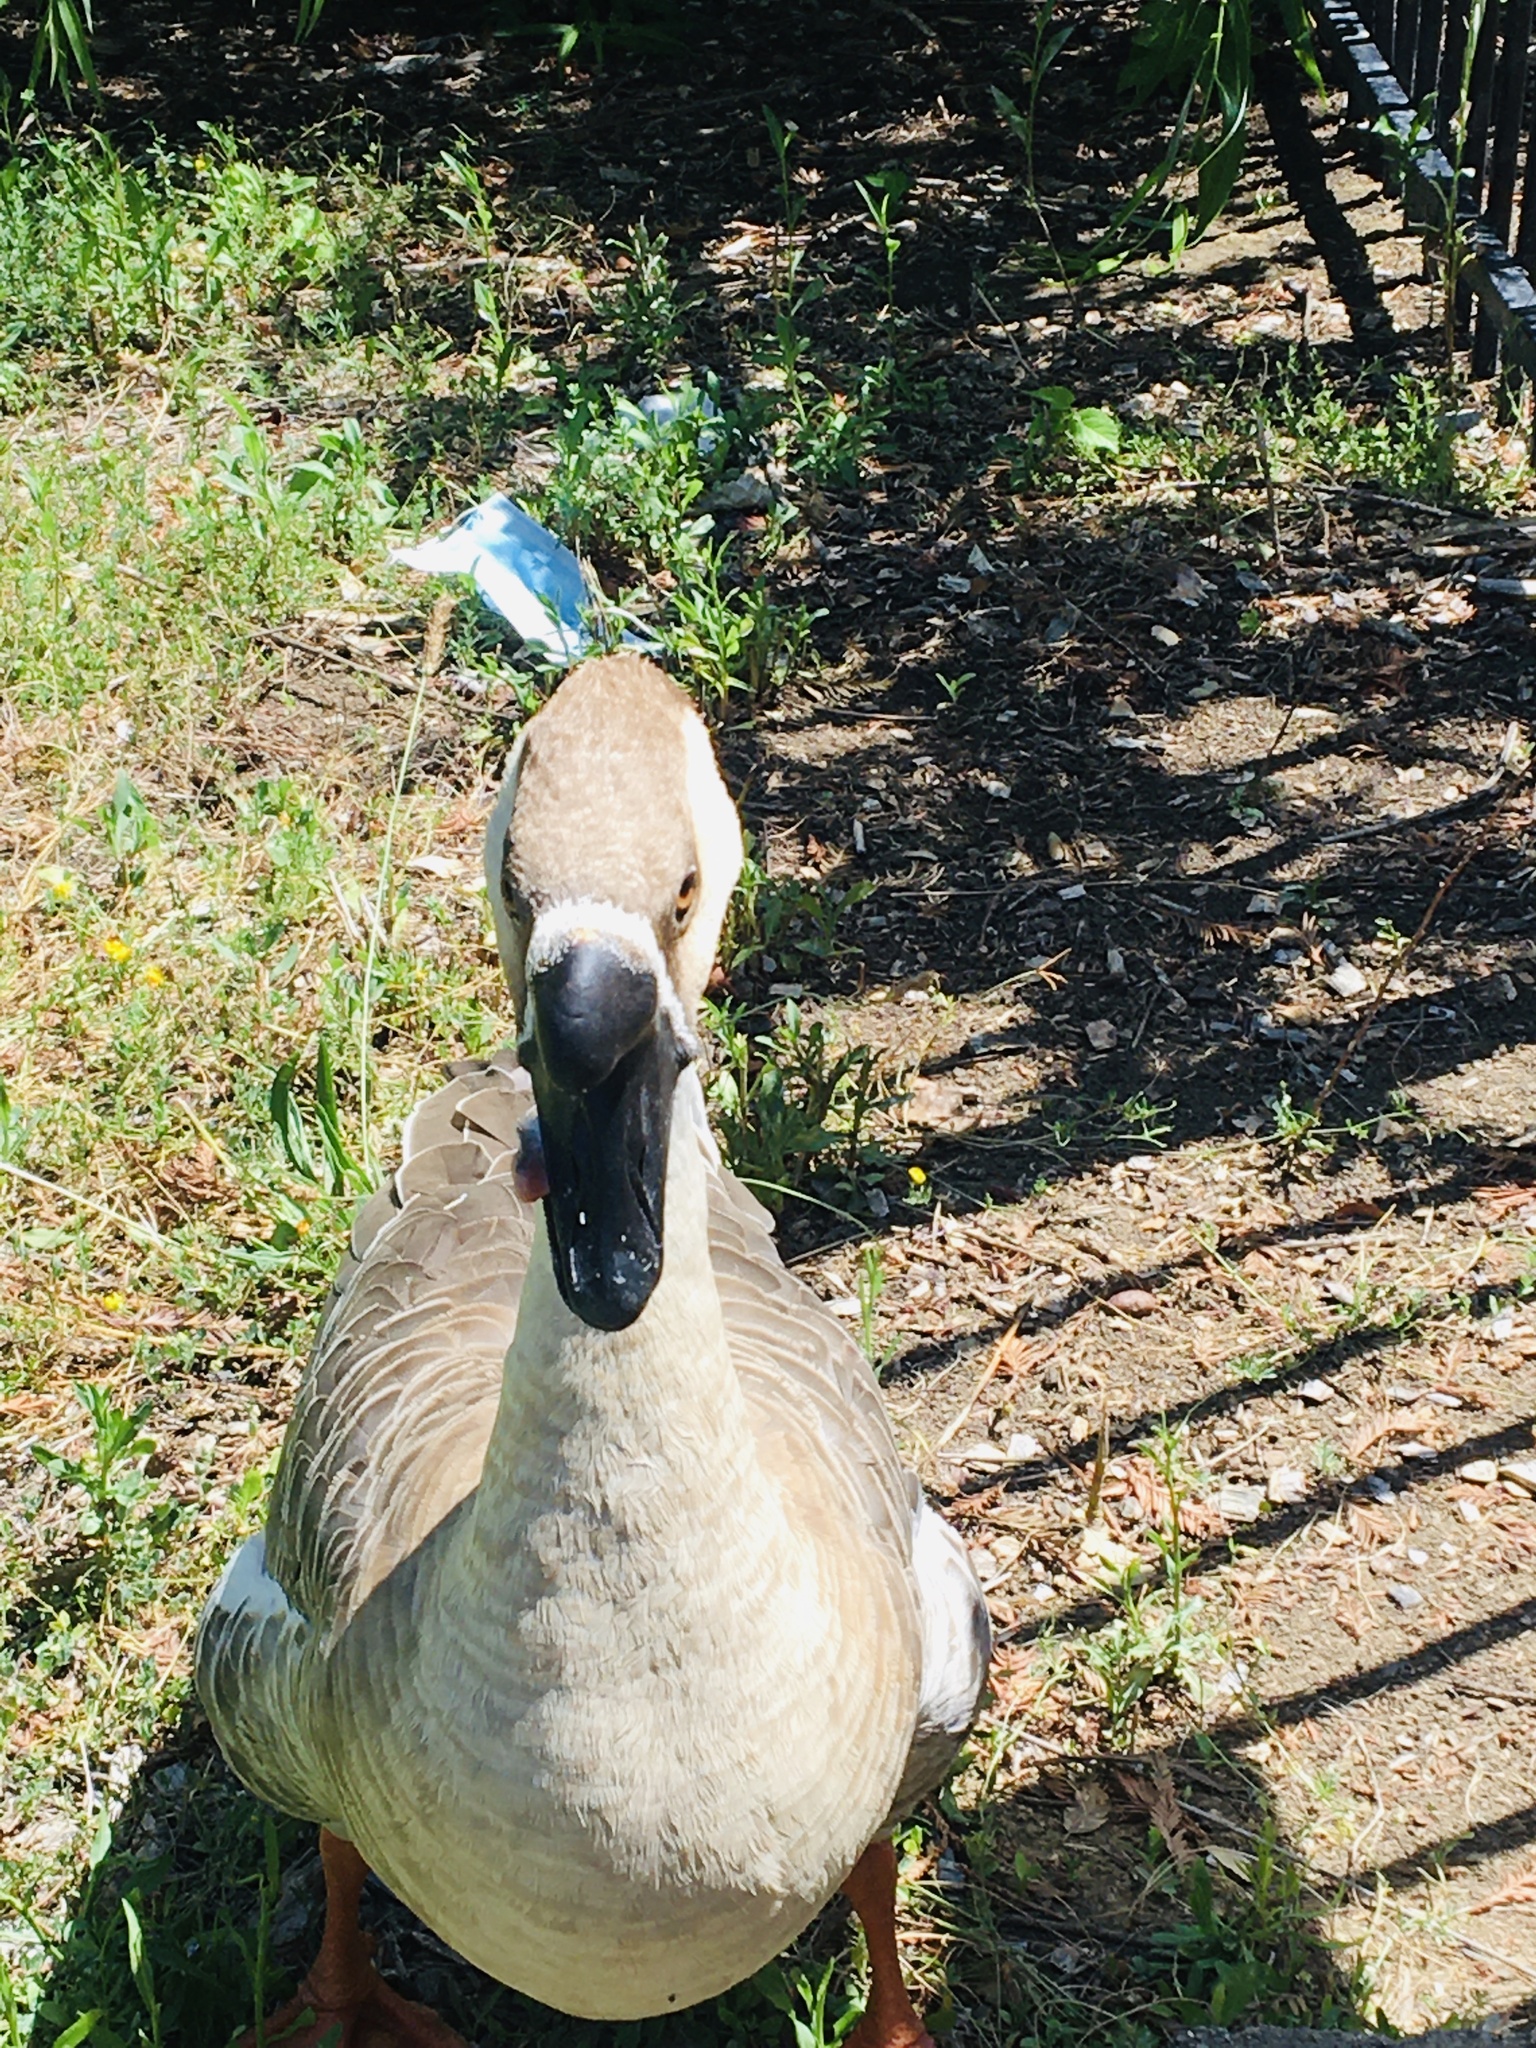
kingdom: Animalia
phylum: Chordata
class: Aves
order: Anseriformes
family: Anatidae
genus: Anser
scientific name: Anser cygnoides
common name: Swan goose
